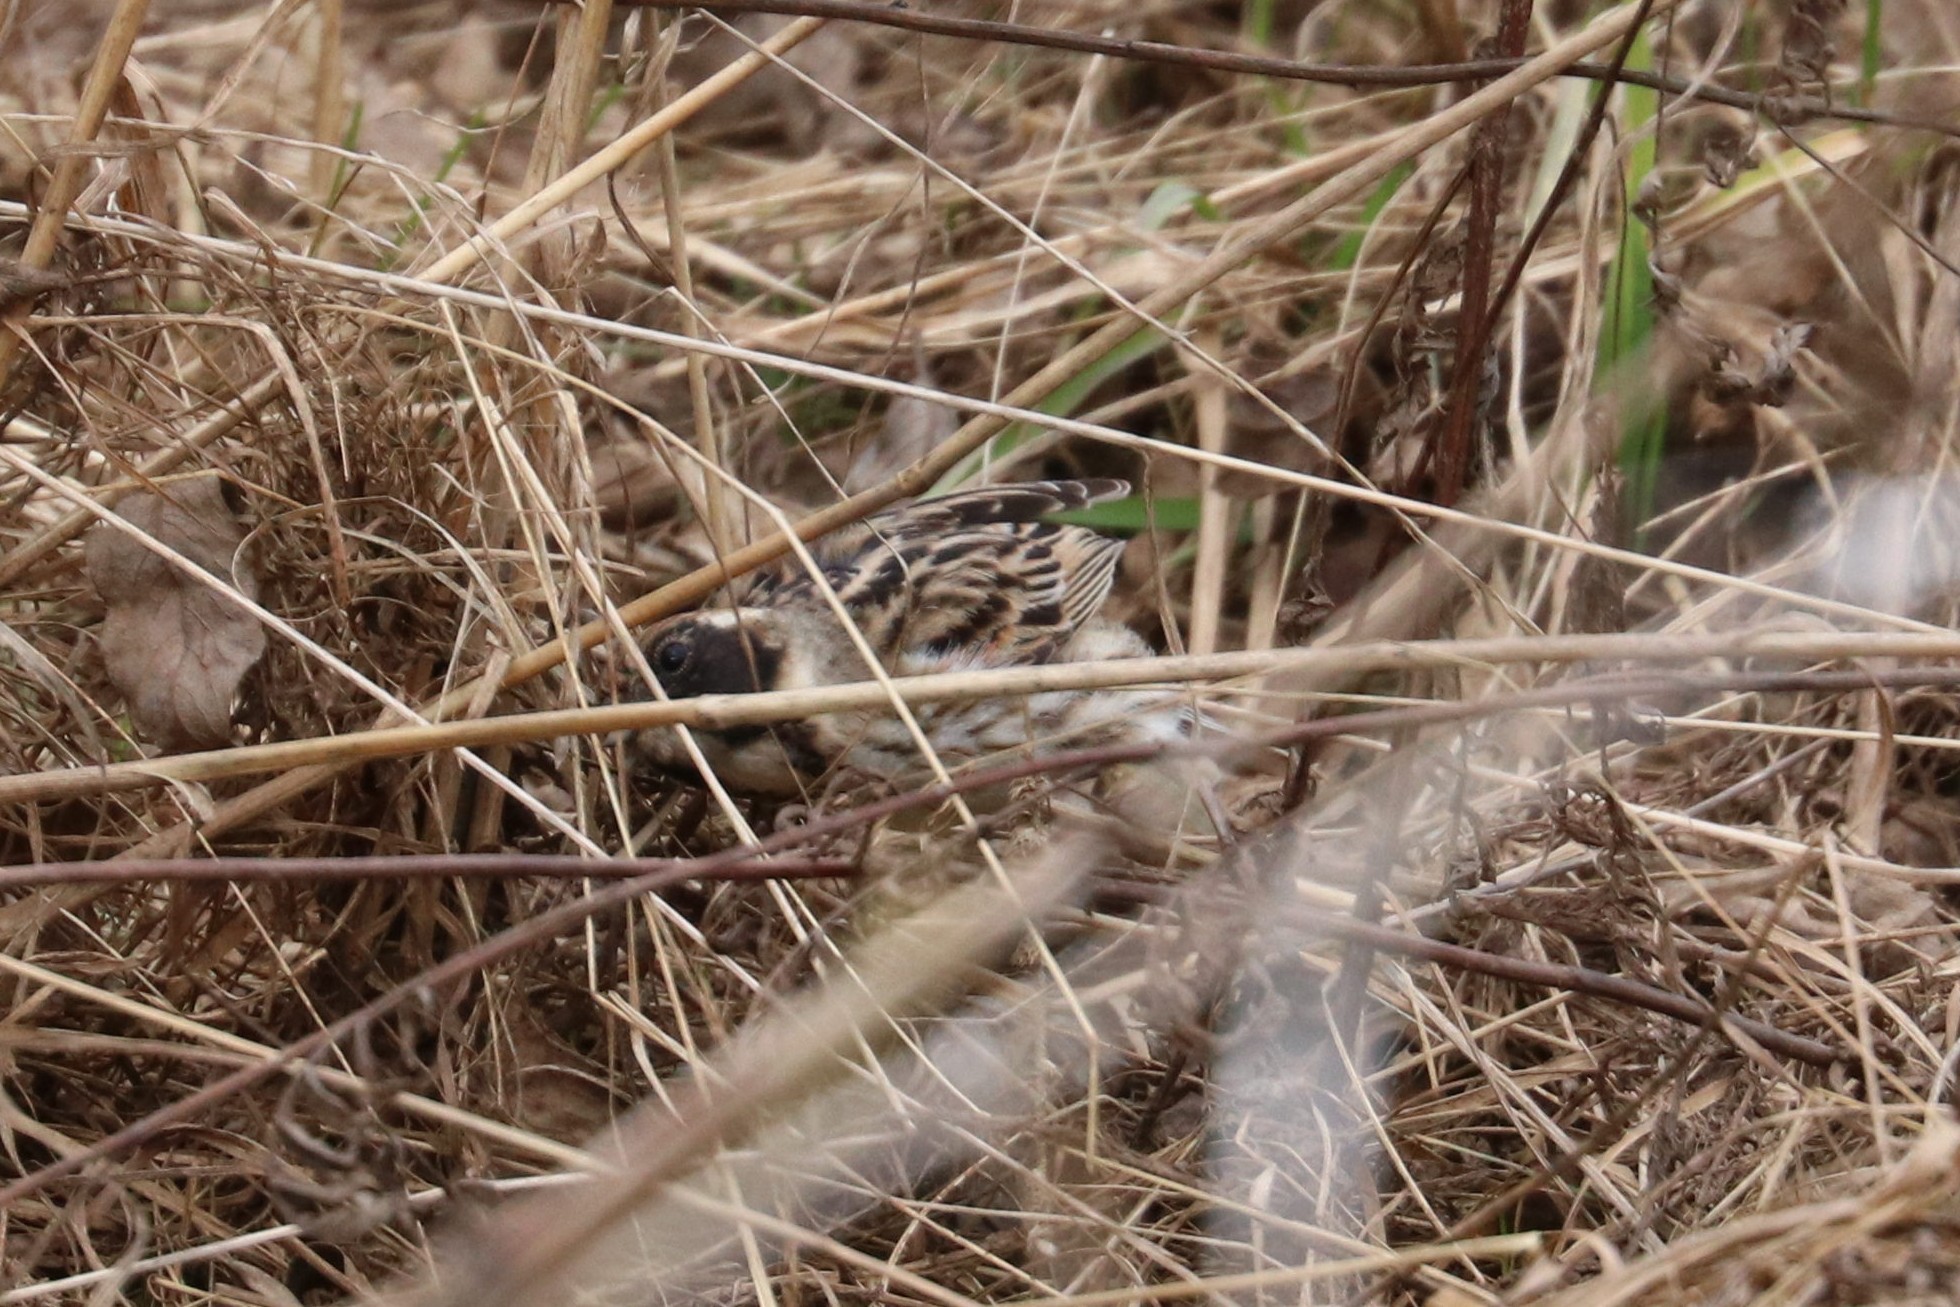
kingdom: Animalia
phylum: Chordata
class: Aves
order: Passeriformes
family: Emberizidae
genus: Emberiza
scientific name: Emberiza schoeniclus
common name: Reed bunting
